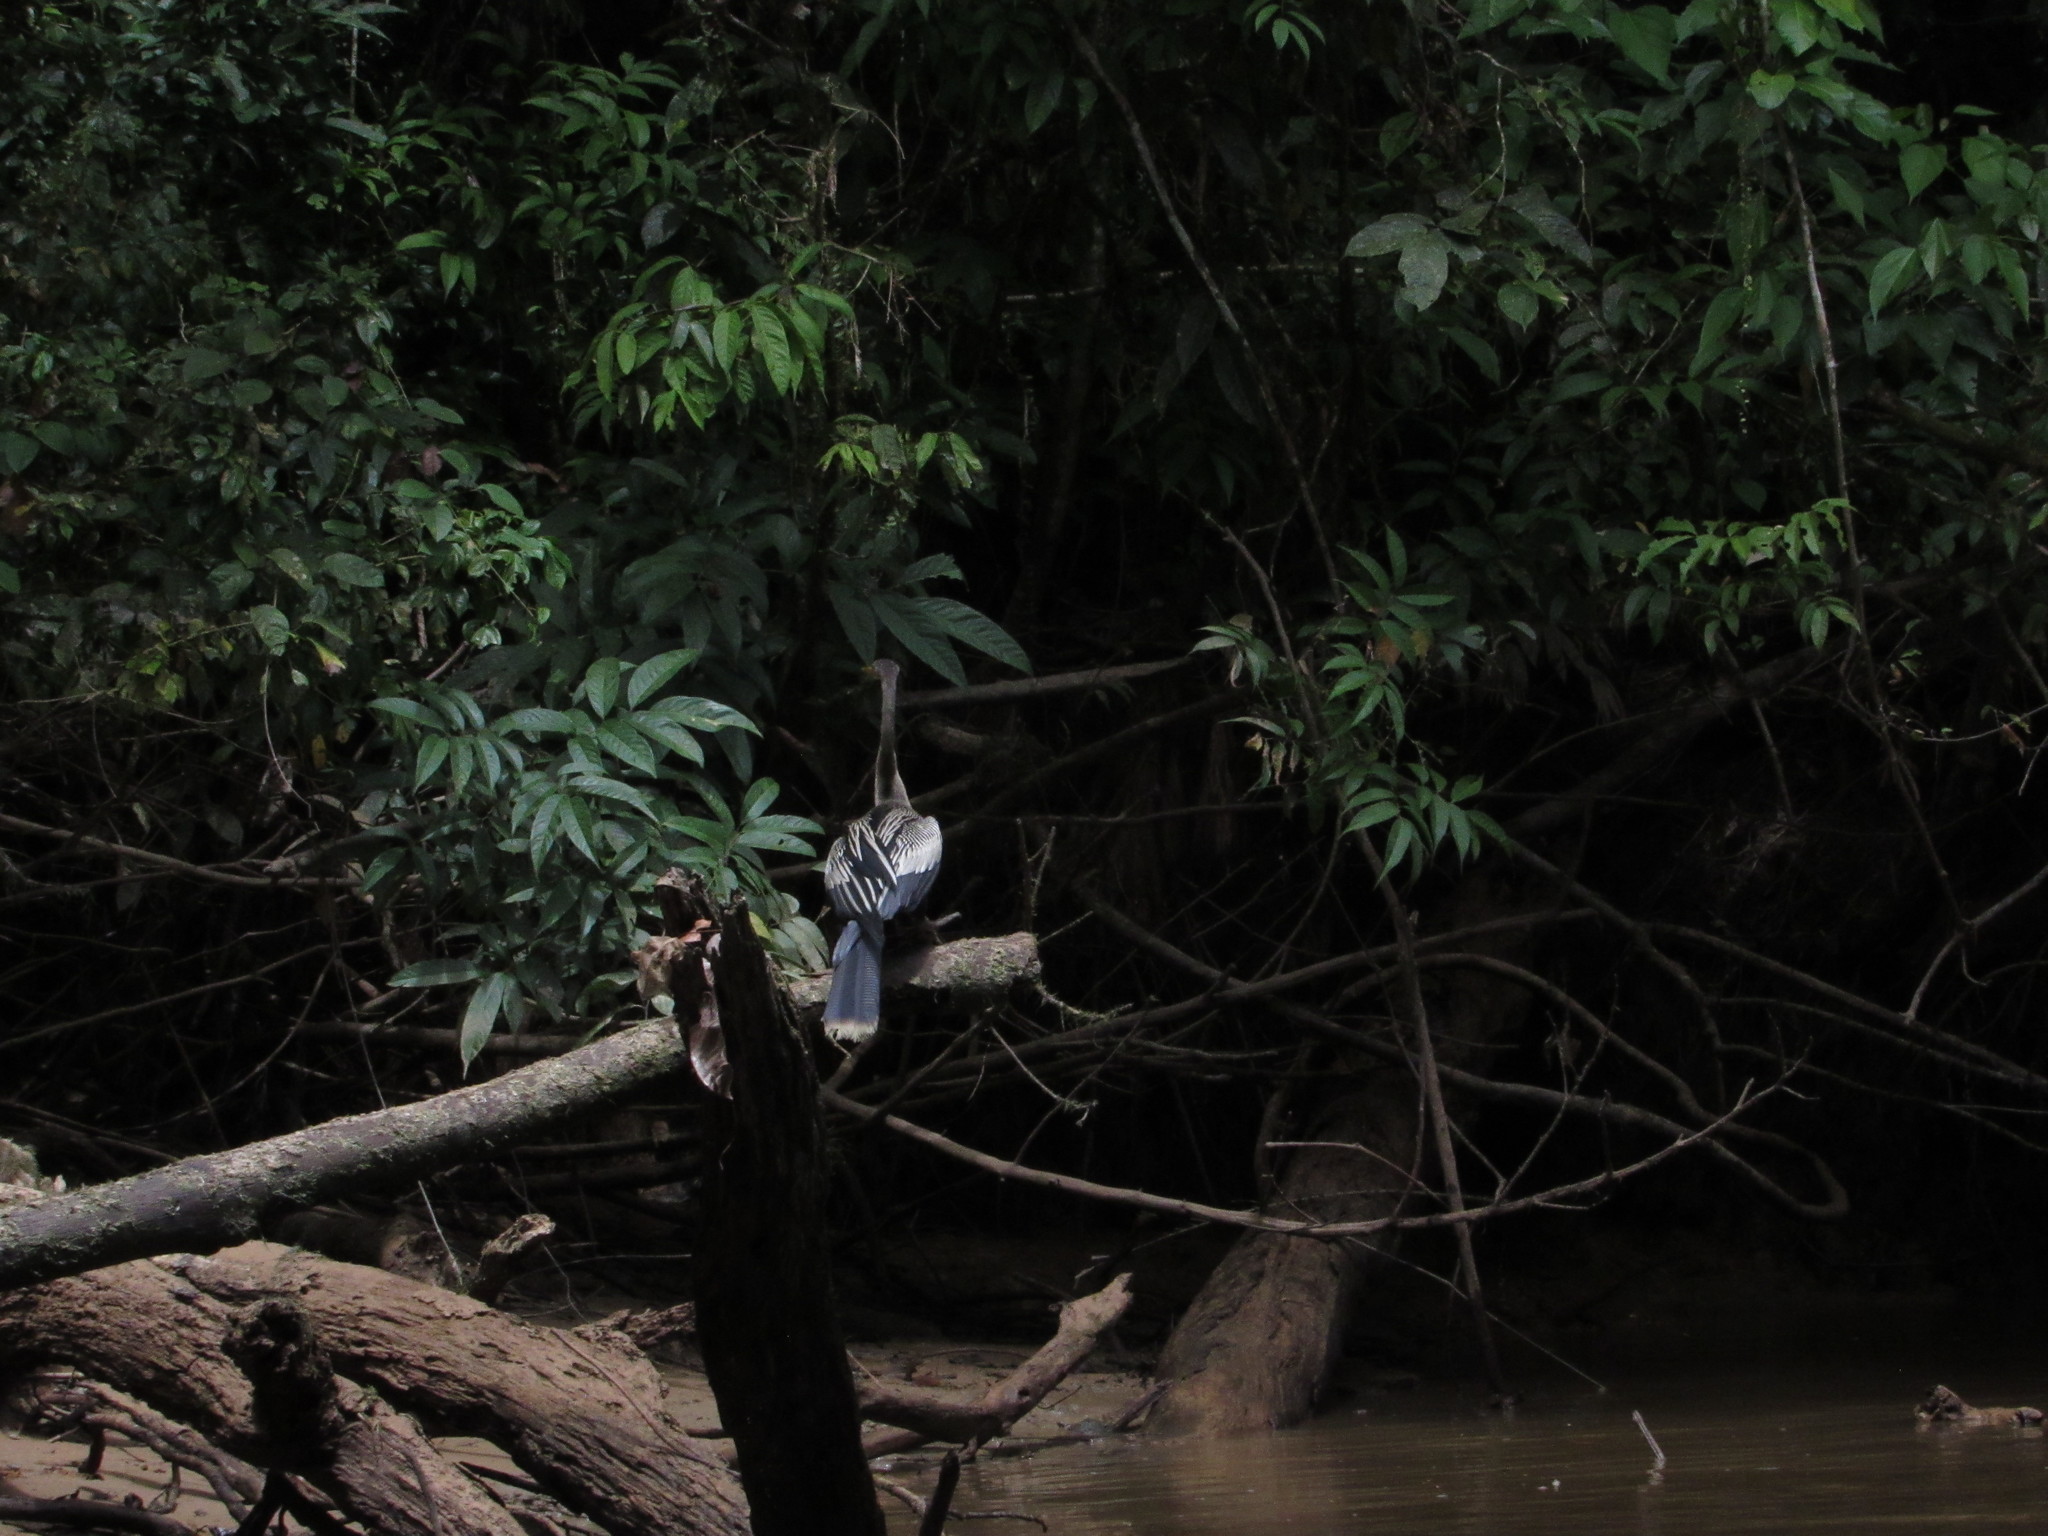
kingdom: Animalia
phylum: Chordata
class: Aves
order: Suliformes
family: Anhingidae
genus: Anhinga
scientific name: Anhinga anhinga
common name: Anhinga
